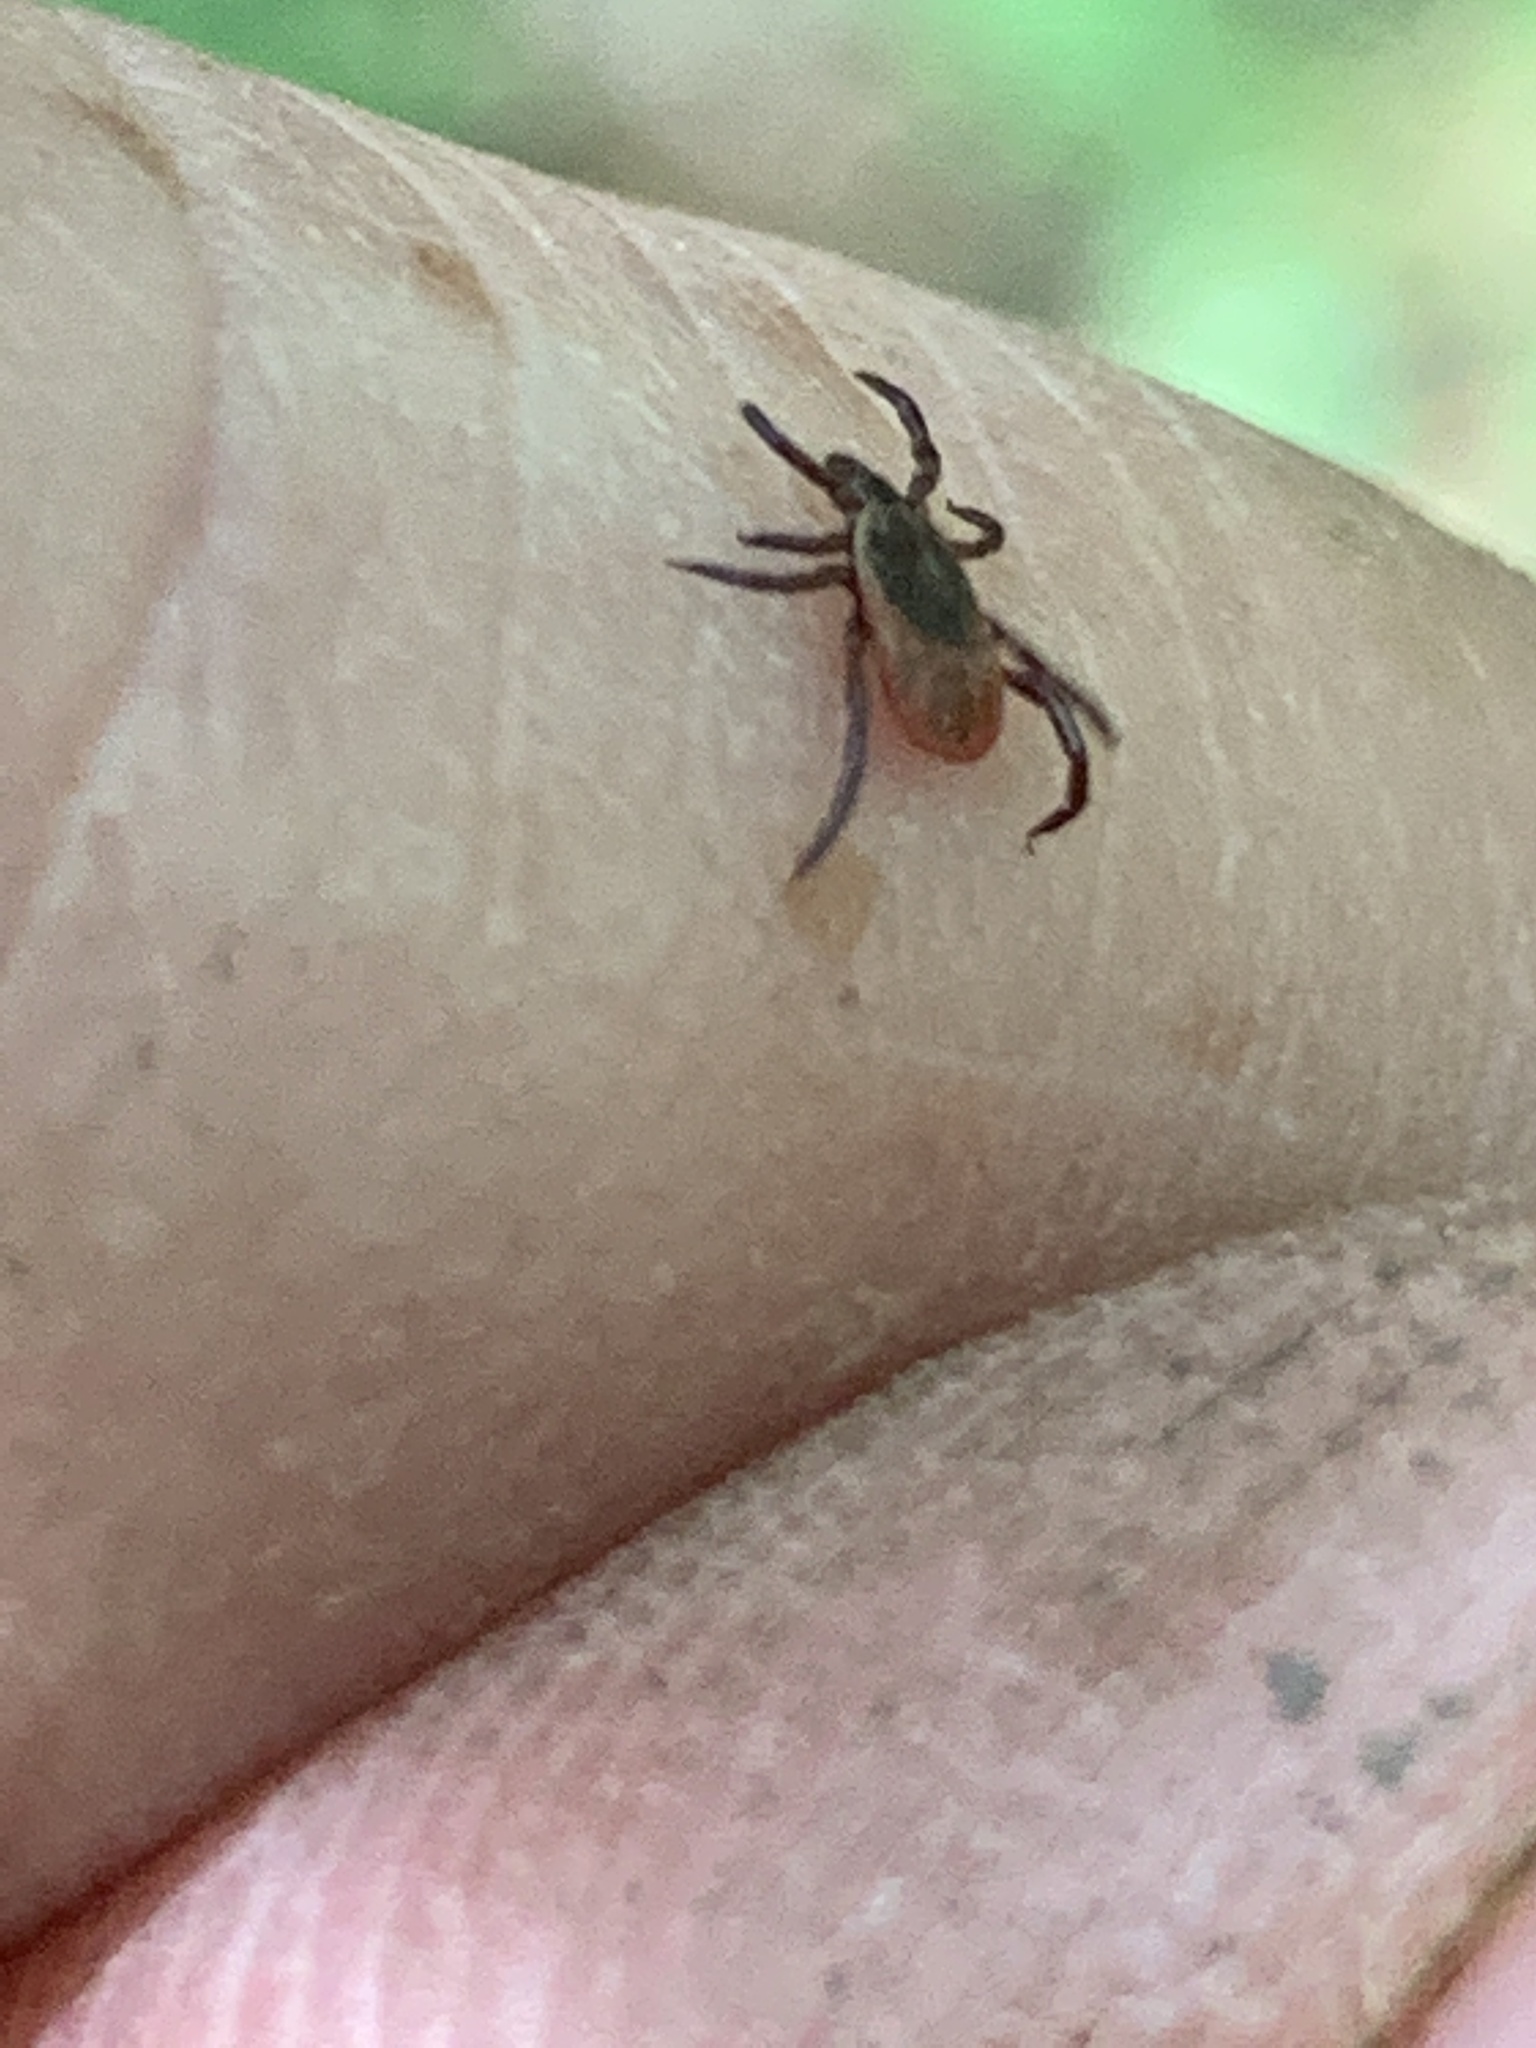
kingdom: Animalia
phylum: Arthropoda
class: Arachnida
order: Ixodida
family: Ixodidae
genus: Ixodes
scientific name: Ixodes scapularis
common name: Black legged tick
